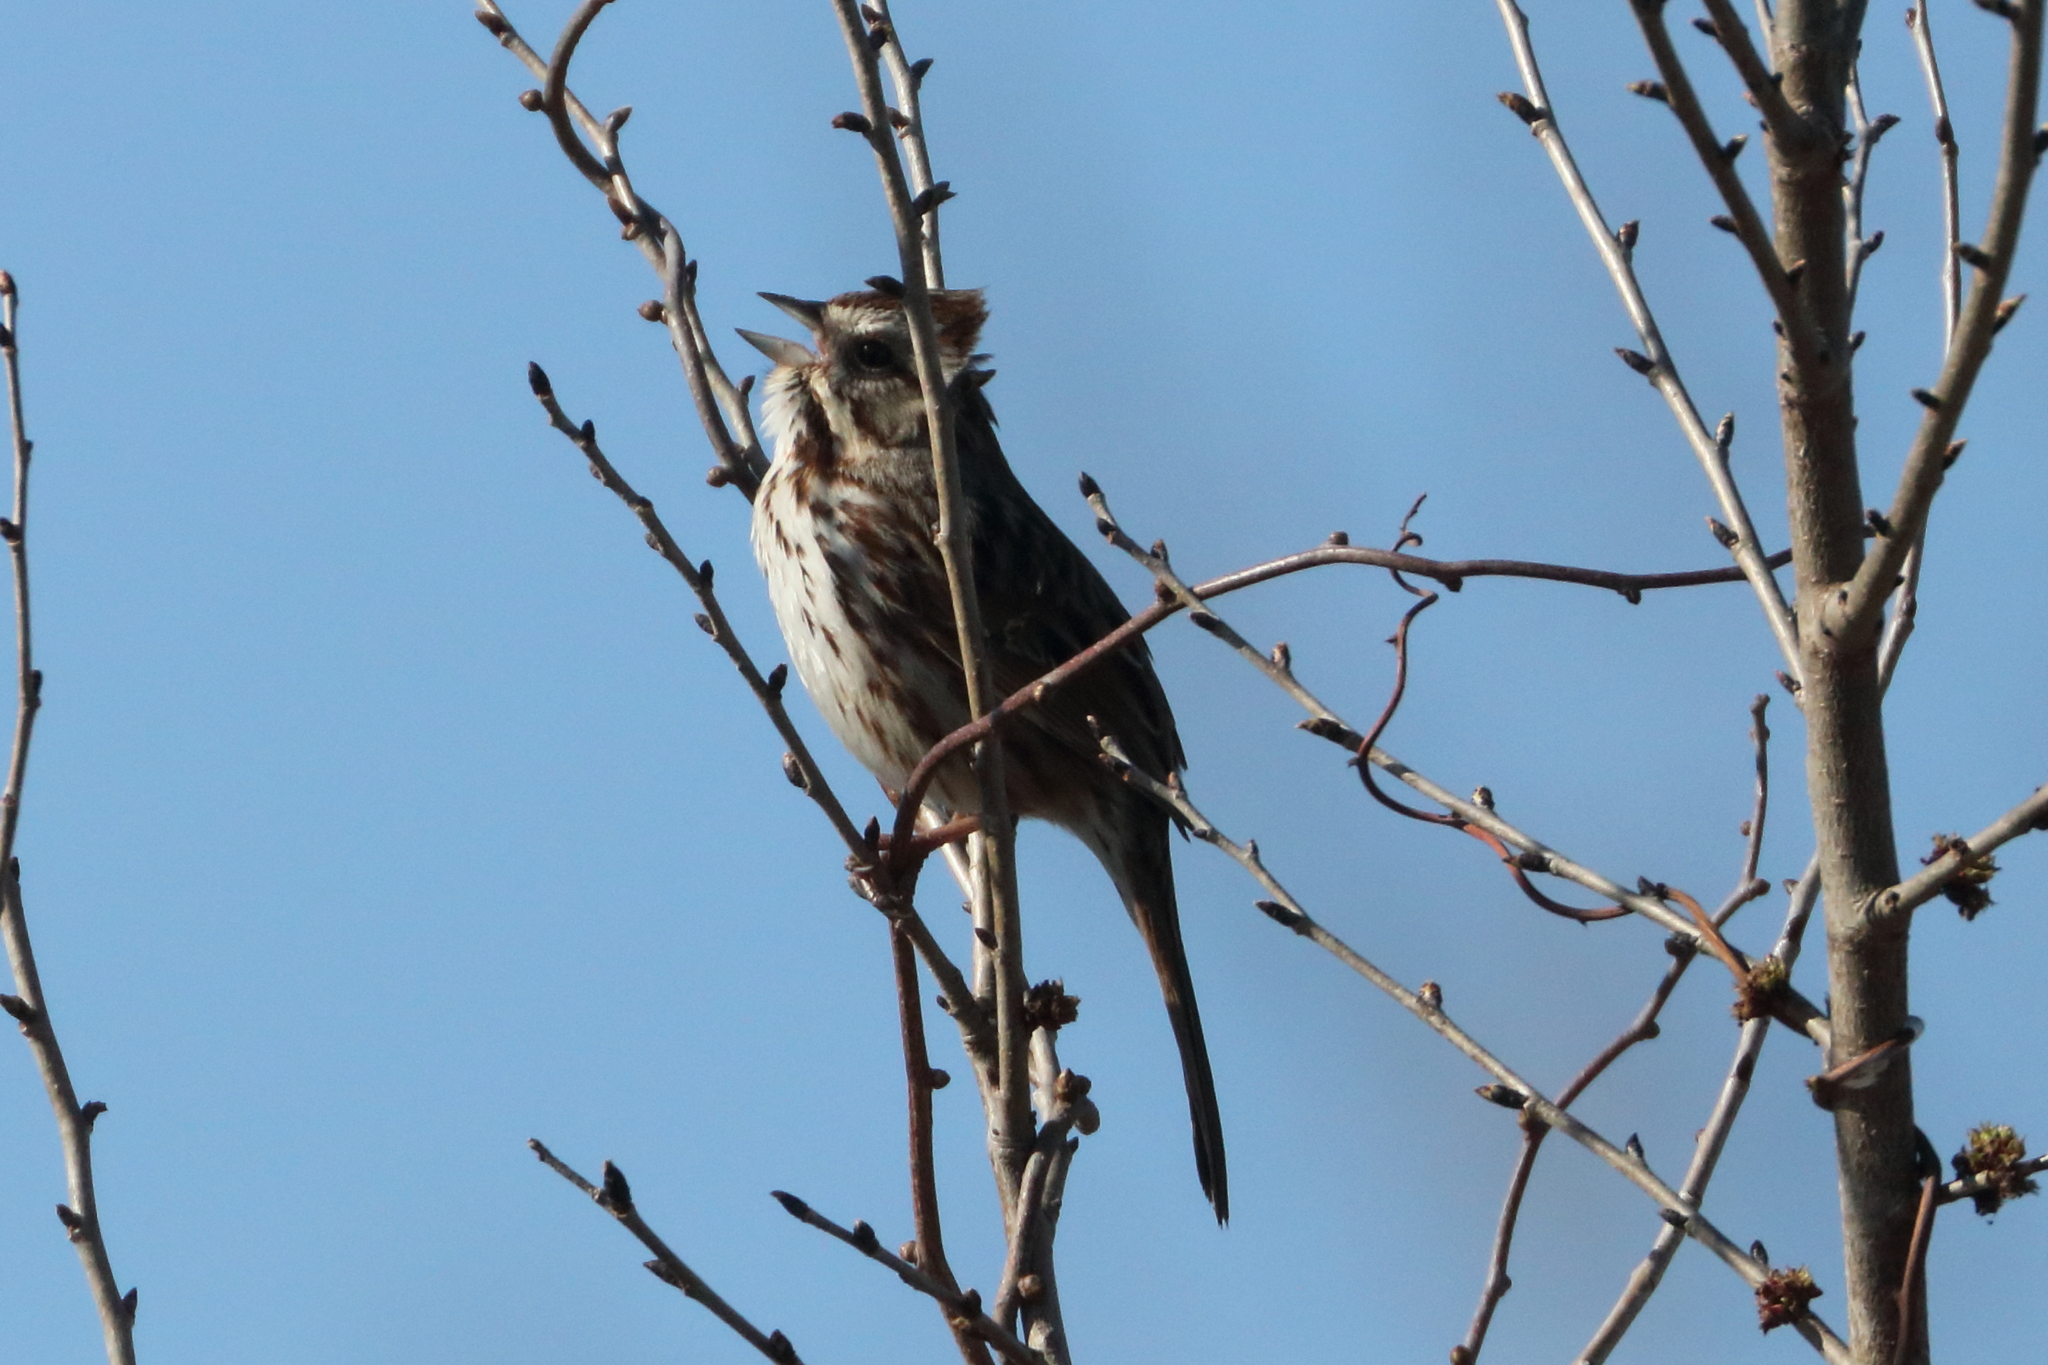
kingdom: Animalia
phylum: Chordata
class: Aves
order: Passeriformes
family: Passerellidae
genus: Melospiza
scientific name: Melospiza melodia
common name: Song sparrow
